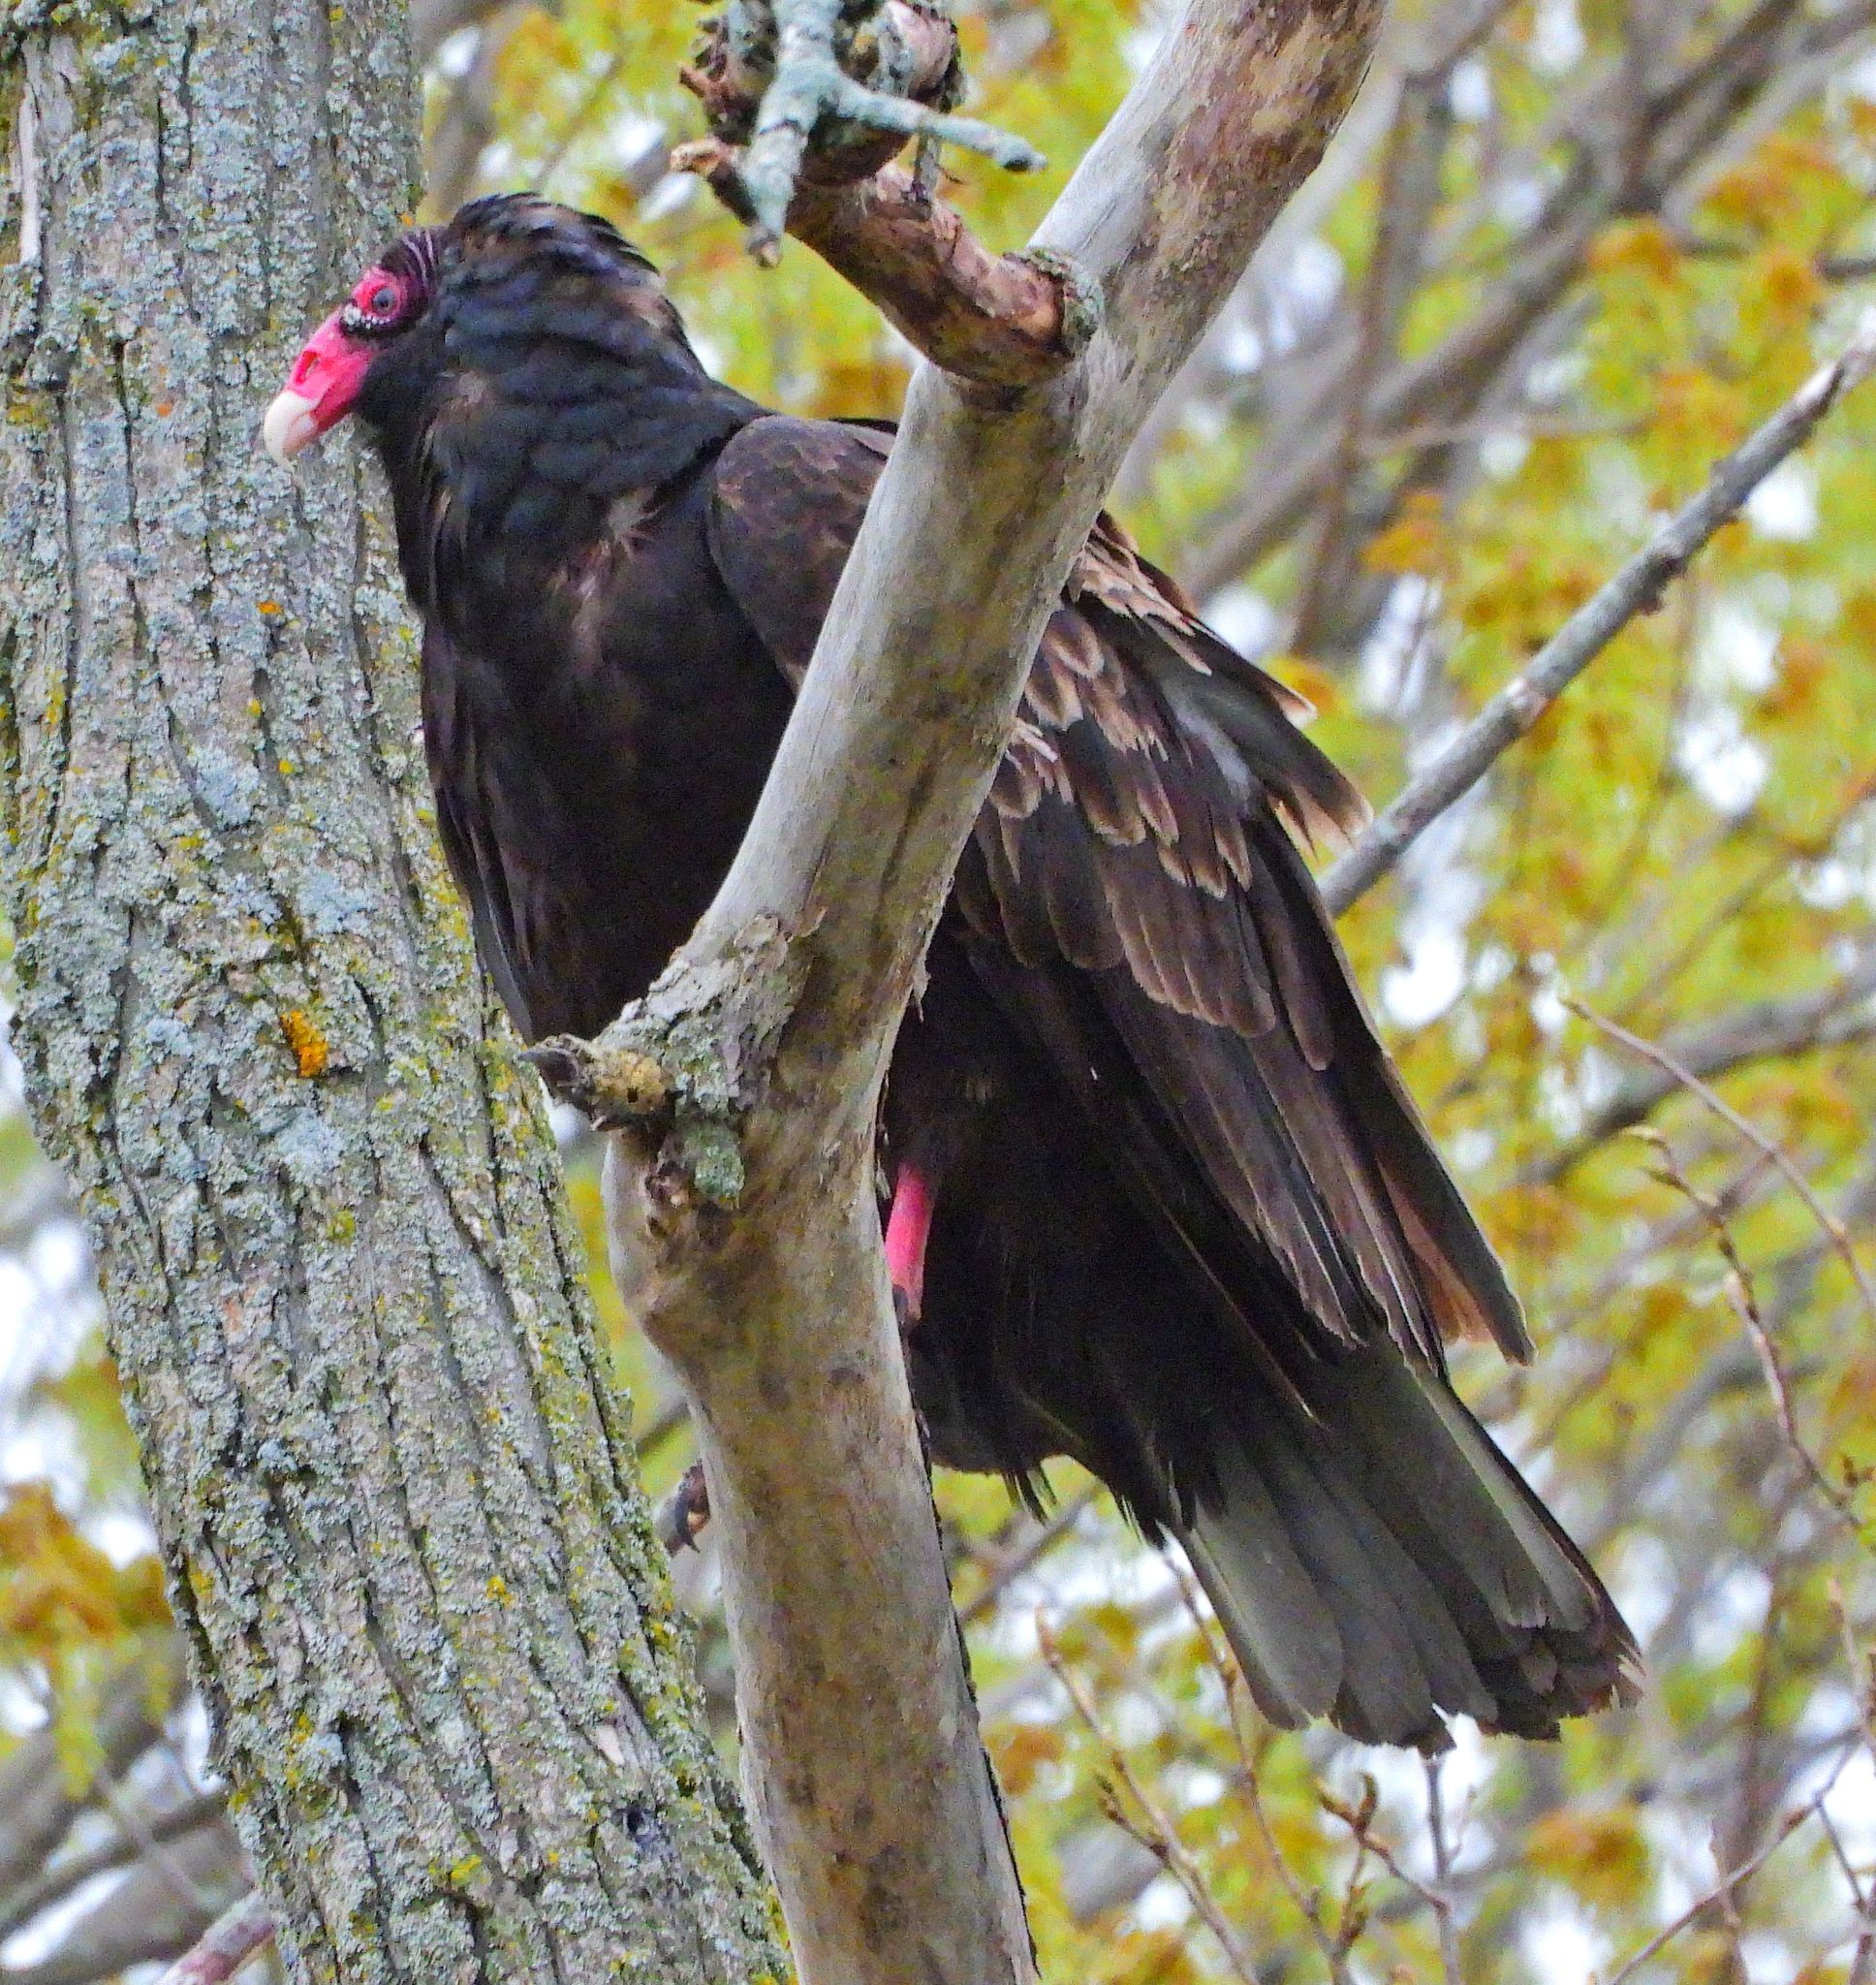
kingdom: Animalia
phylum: Chordata
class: Aves
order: Accipitriformes
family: Cathartidae
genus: Cathartes
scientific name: Cathartes aura
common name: Turkey vulture
